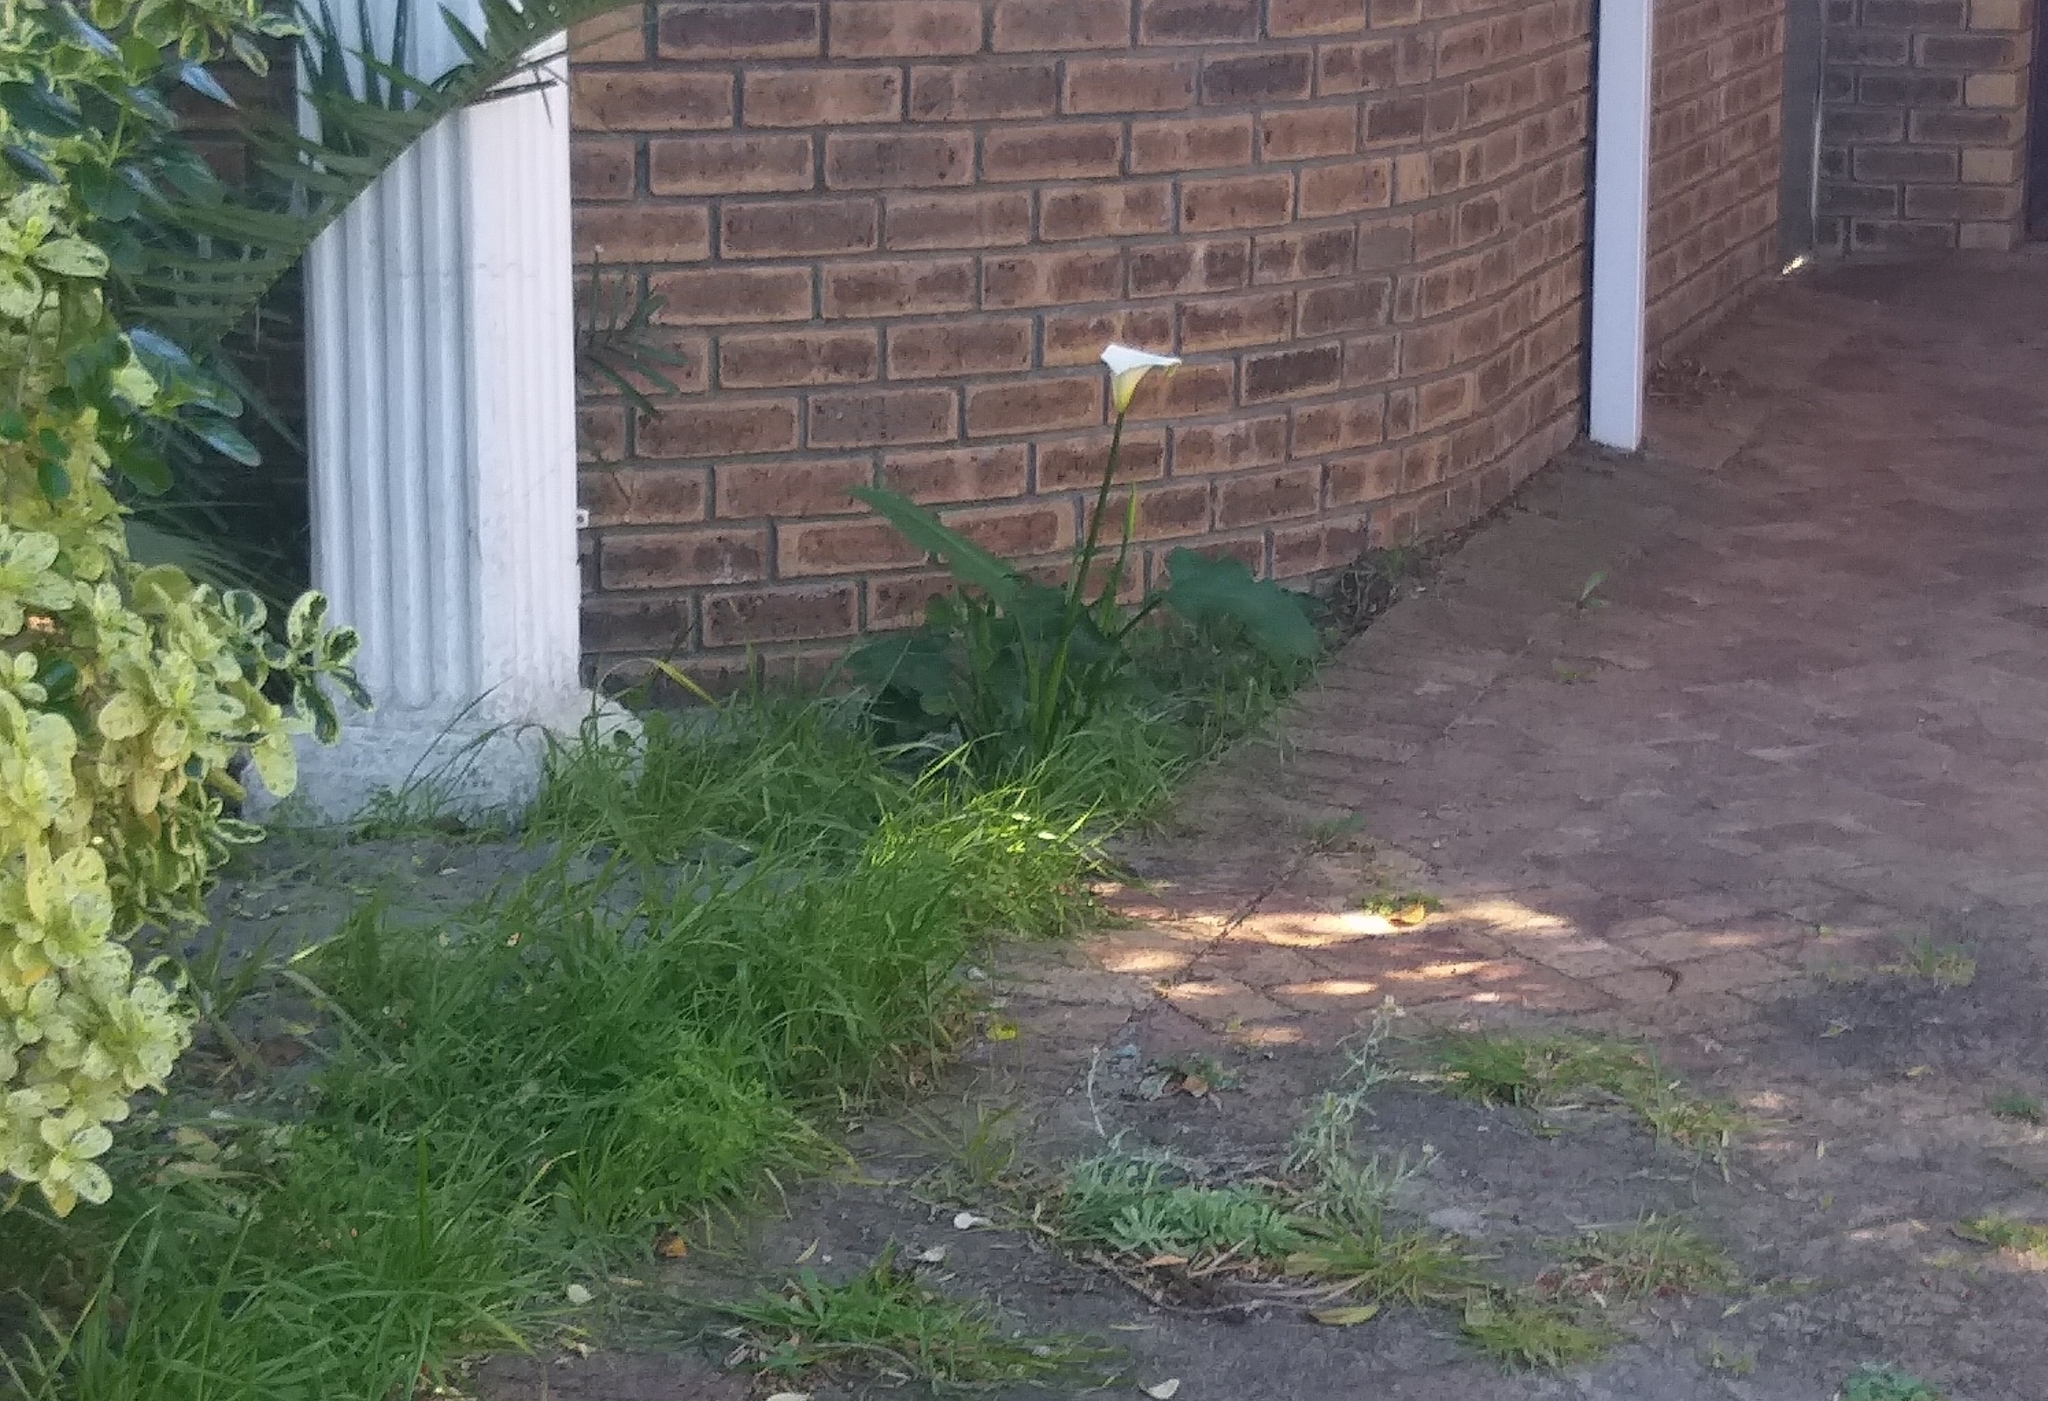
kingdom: Plantae
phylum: Tracheophyta
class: Liliopsida
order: Alismatales
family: Araceae
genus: Zantedeschia
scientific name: Zantedeschia aethiopica
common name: Altar-lily
